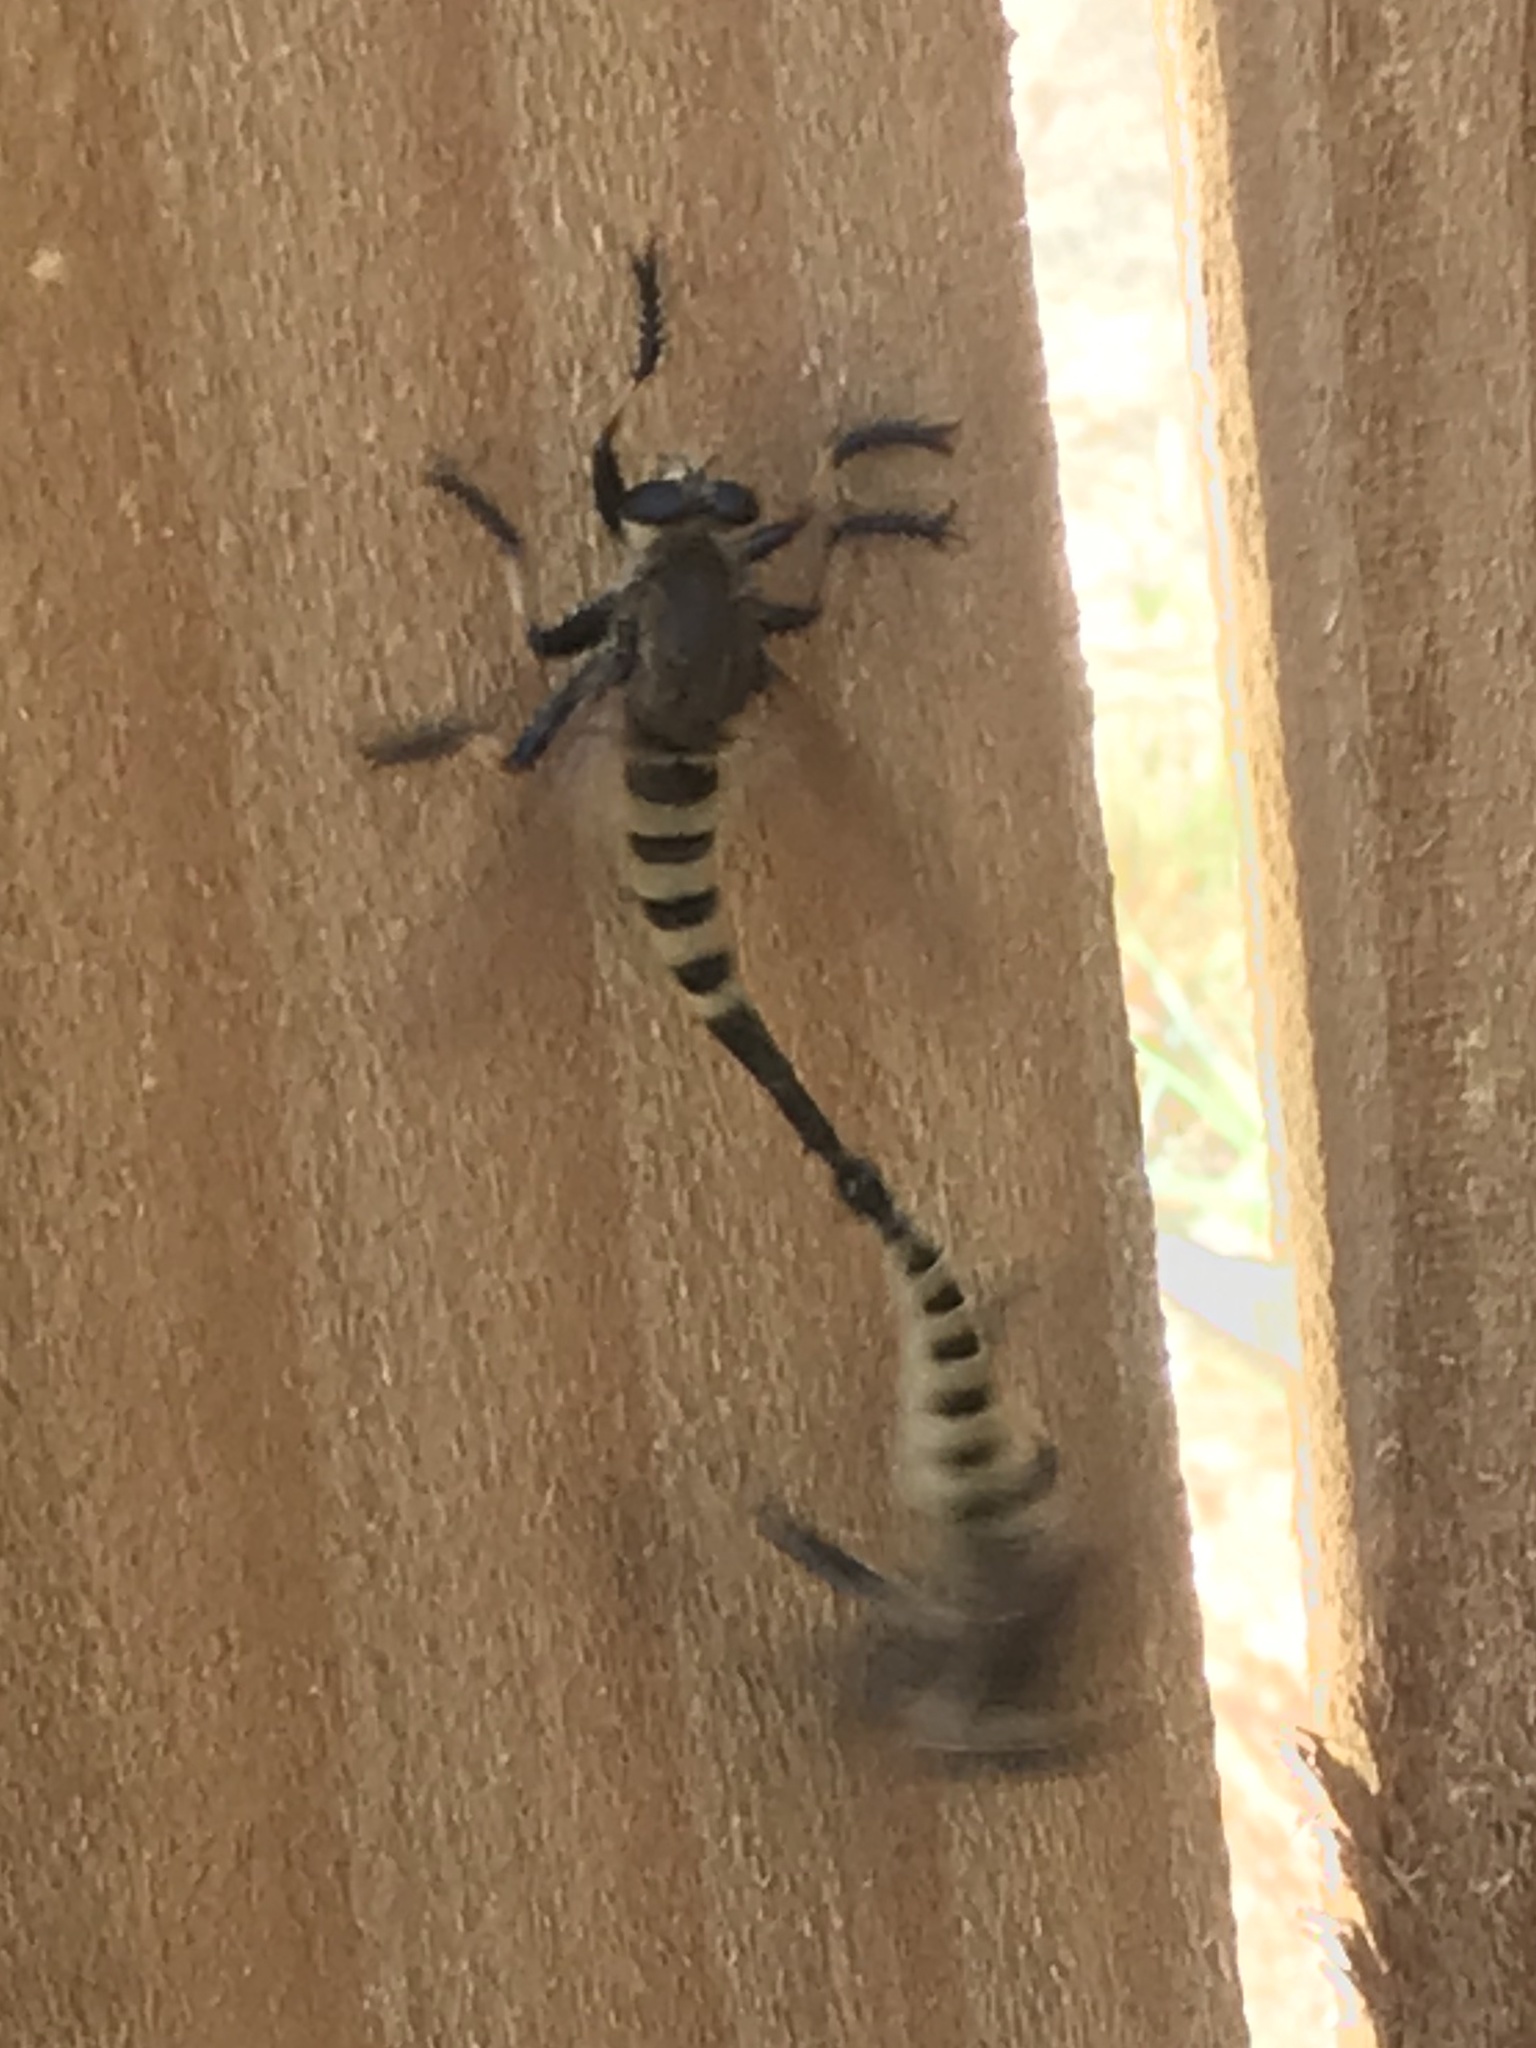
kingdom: Animalia
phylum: Arthropoda
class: Insecta
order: Diptera
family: Asilidae
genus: Promachus
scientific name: Promachus rufipes
